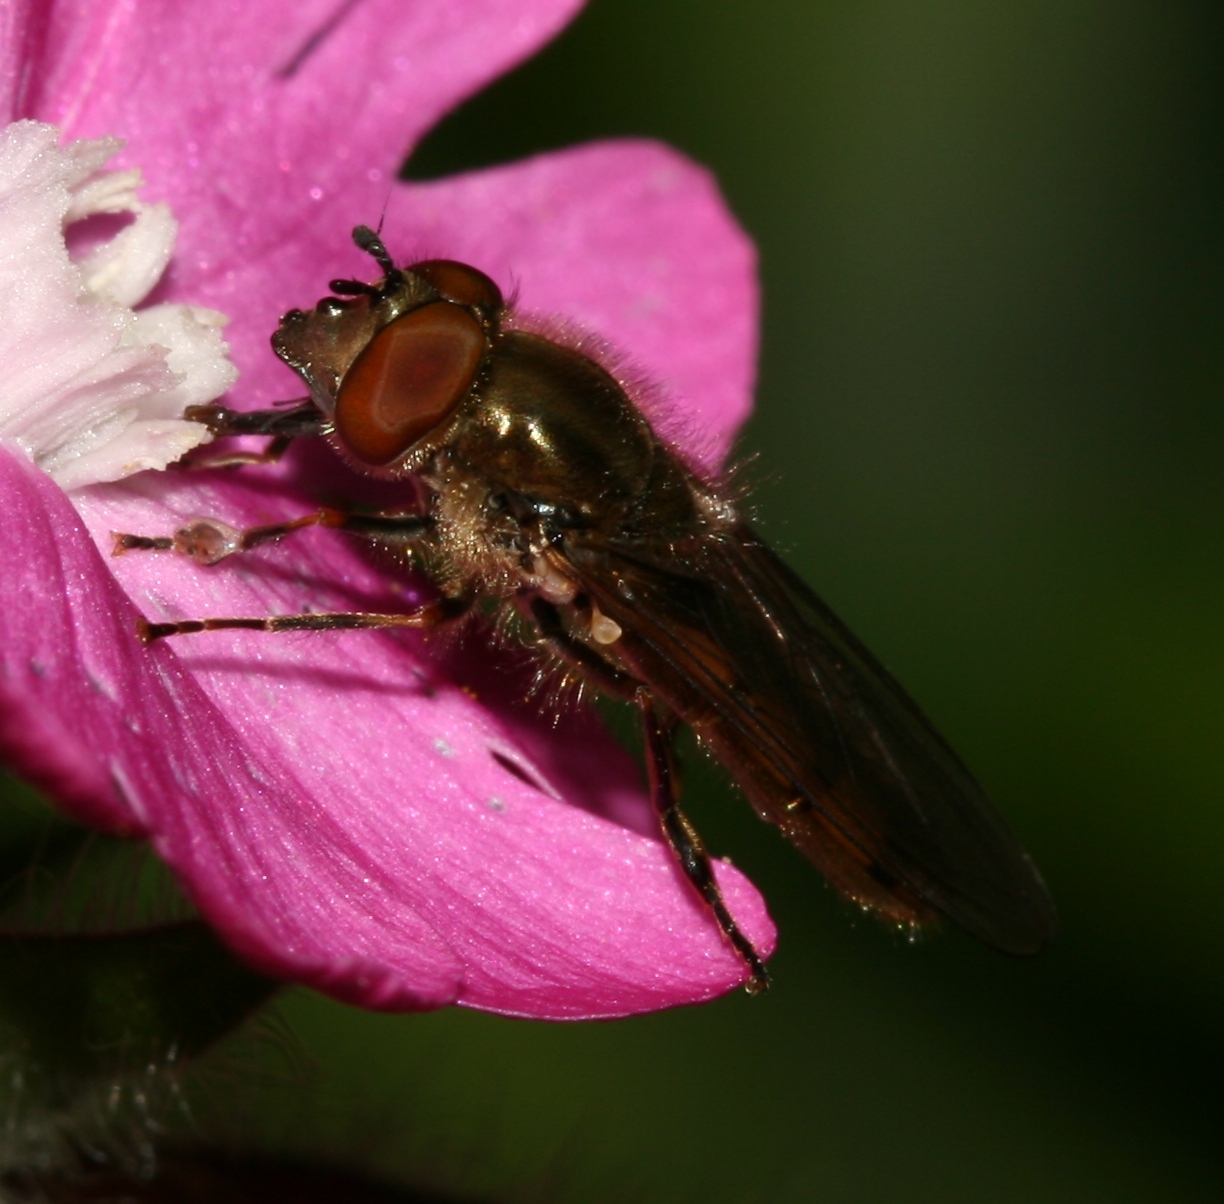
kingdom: Animalia
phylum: Arthropoda
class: Insecta
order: Diptera
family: Syrphidae
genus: Platycheirus
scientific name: Platycheirus manicatus
